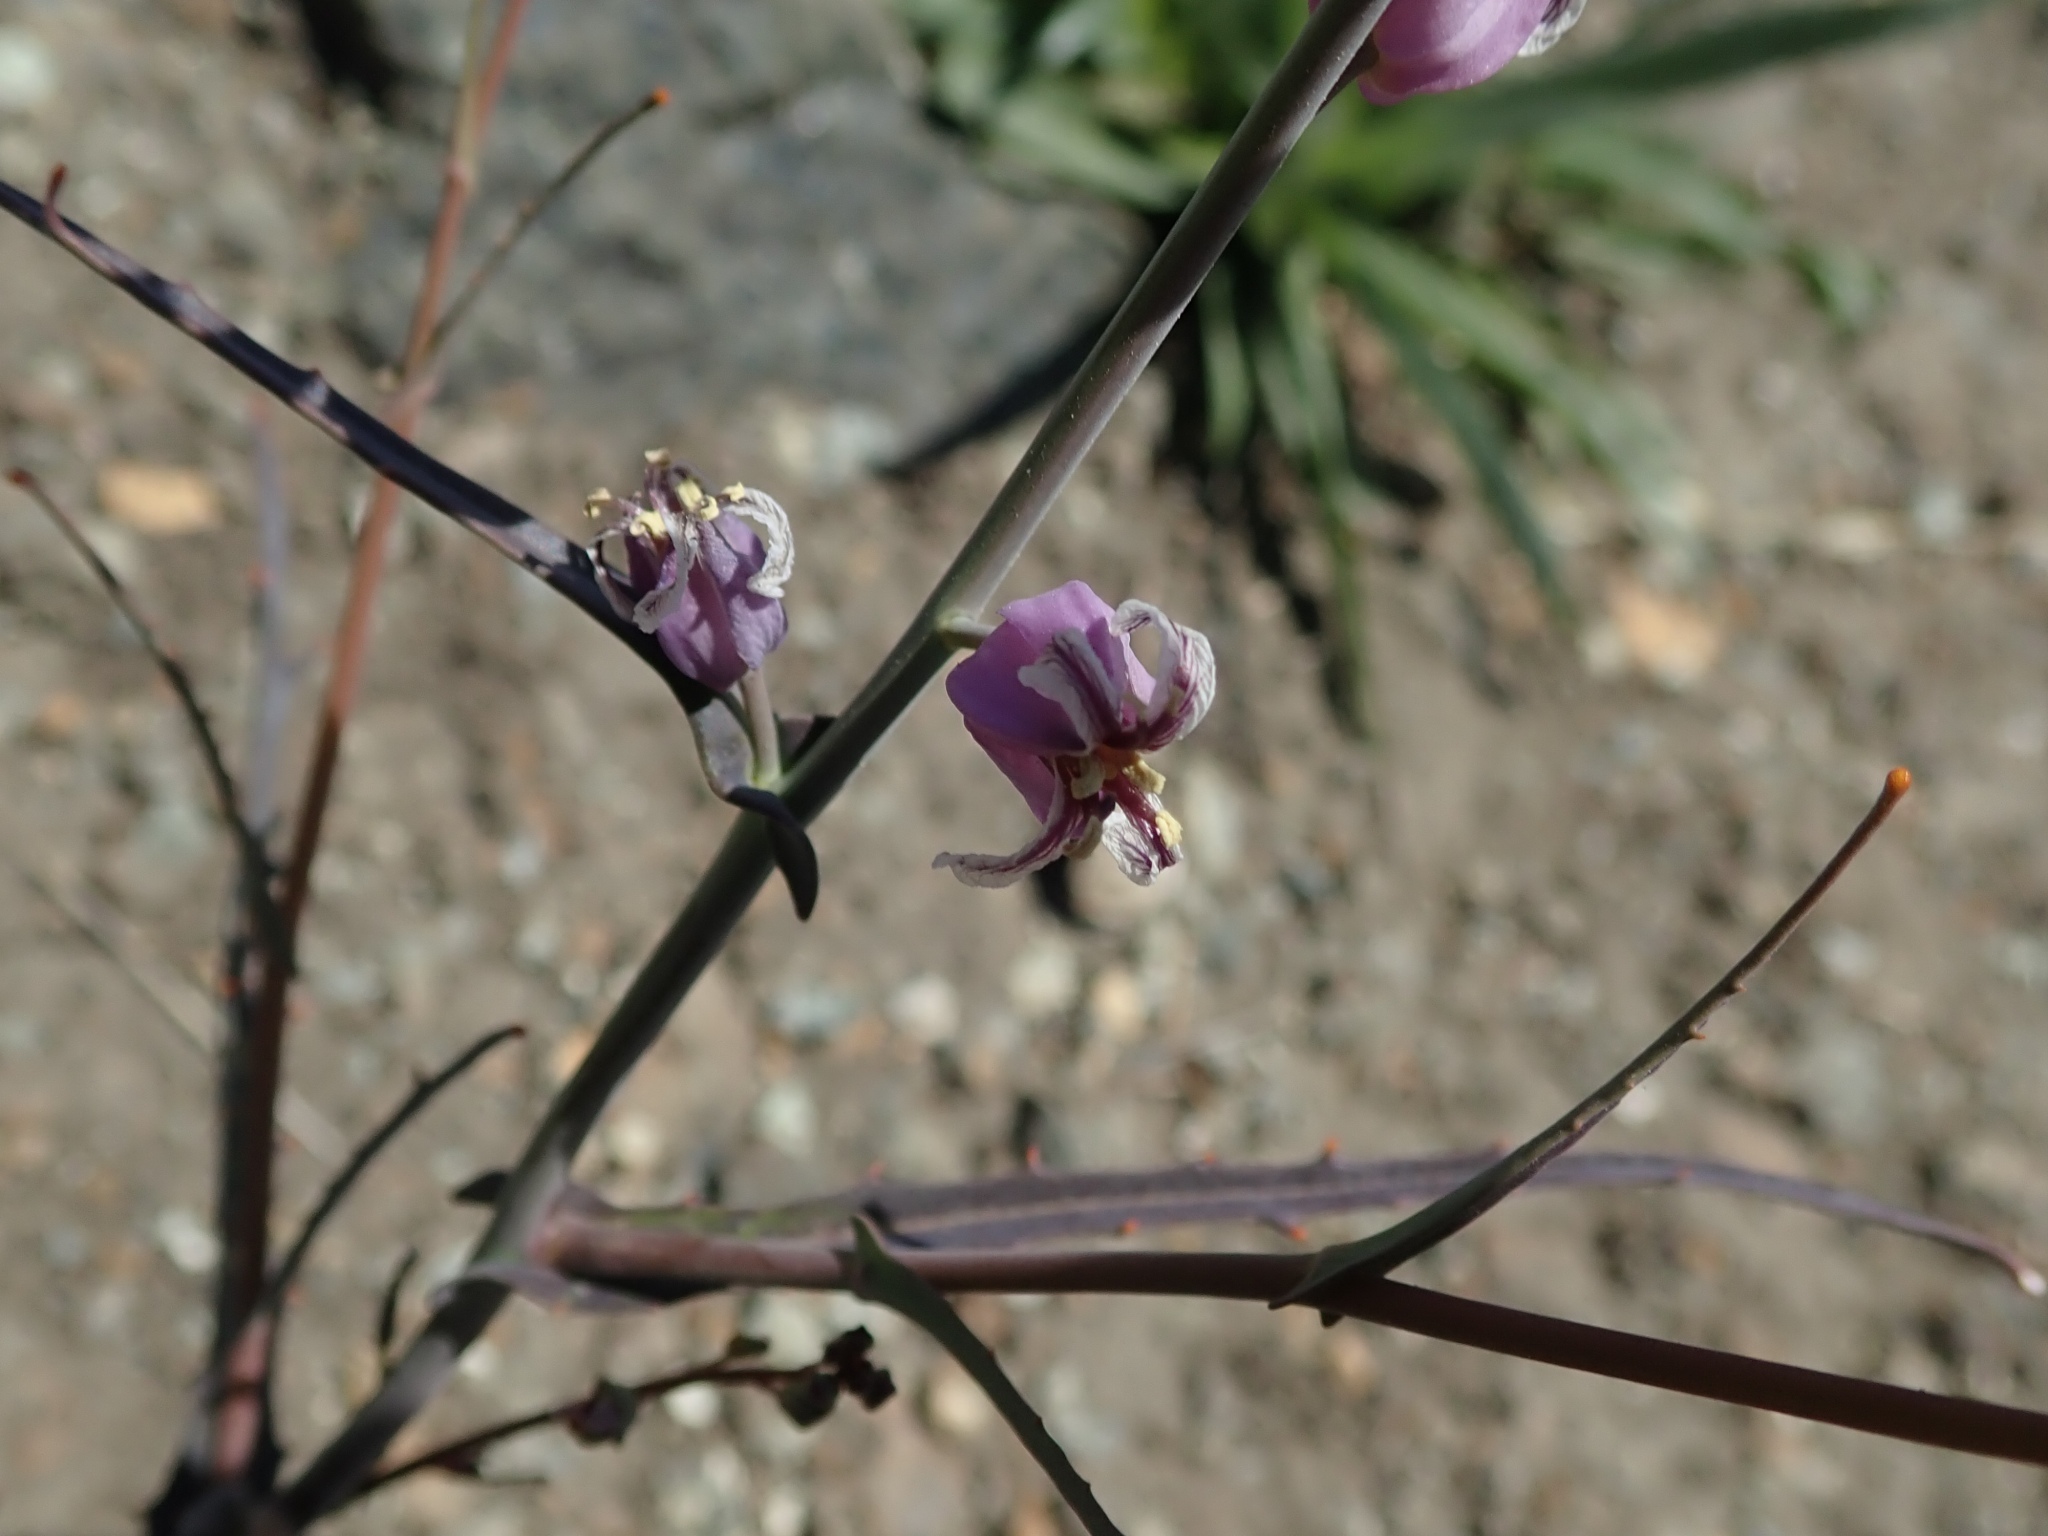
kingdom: Plantae
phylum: Tracheophyta
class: Magnoliopsida
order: Brassicales
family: Brassicaceae
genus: Streptanthus
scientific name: Streptanthus glandulosus
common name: Jewel-flower
